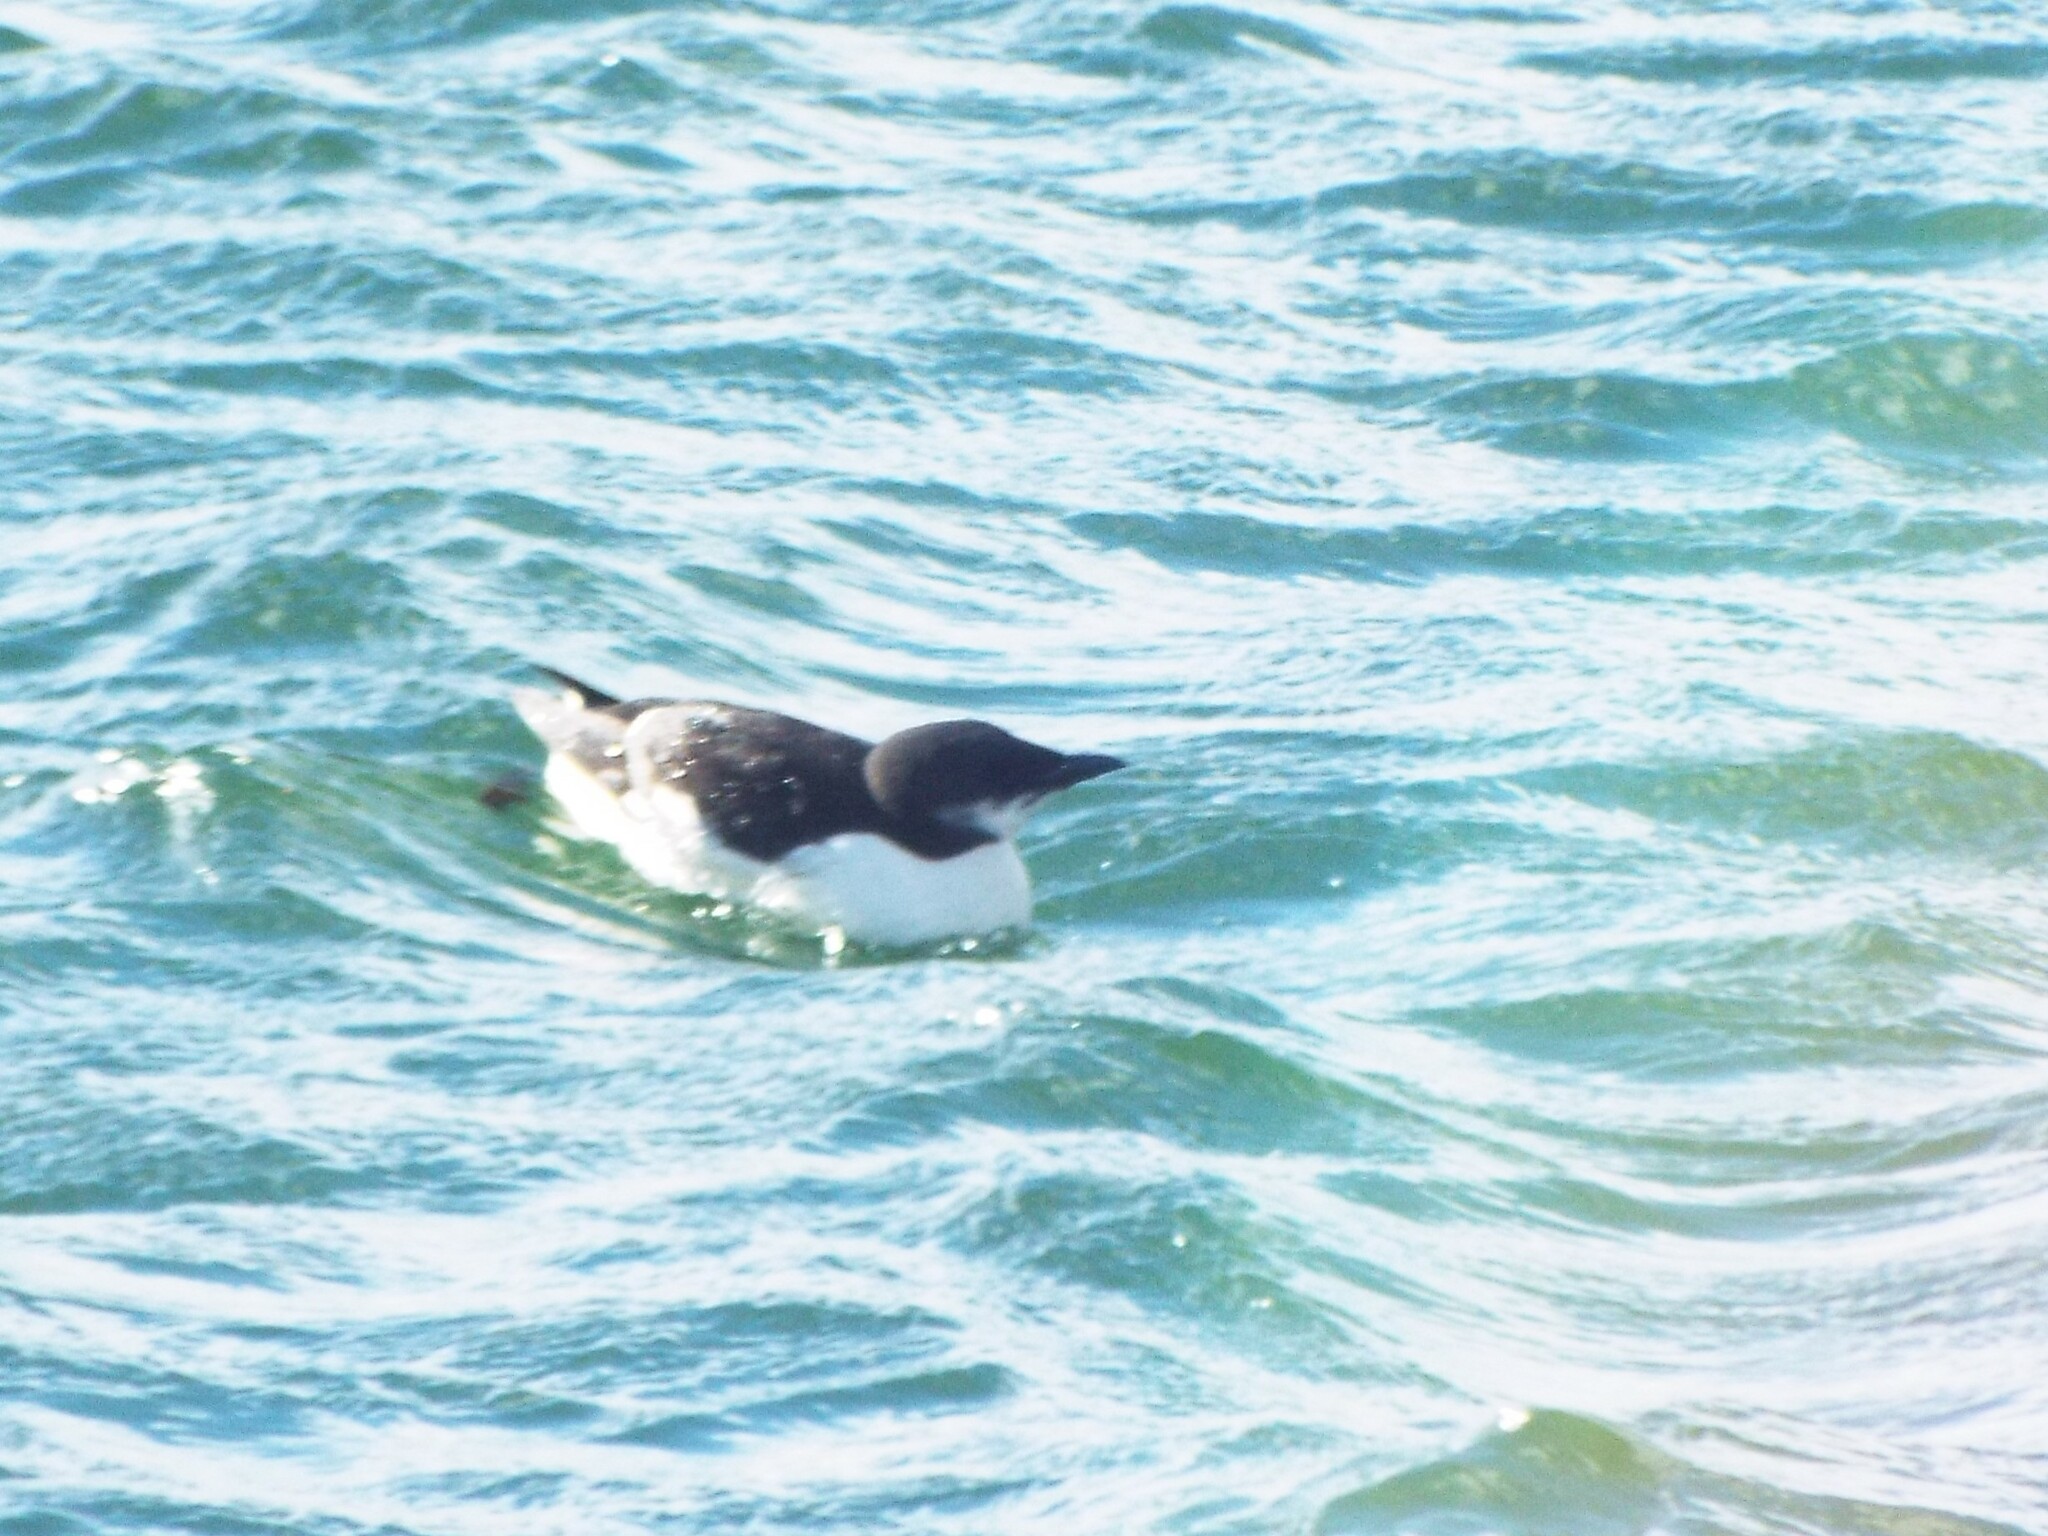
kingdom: Animalia
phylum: Chordata
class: Aves
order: Charadriiformes
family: Alcidae
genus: Uria
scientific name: Uria lomvia
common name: Thick-billed murre
